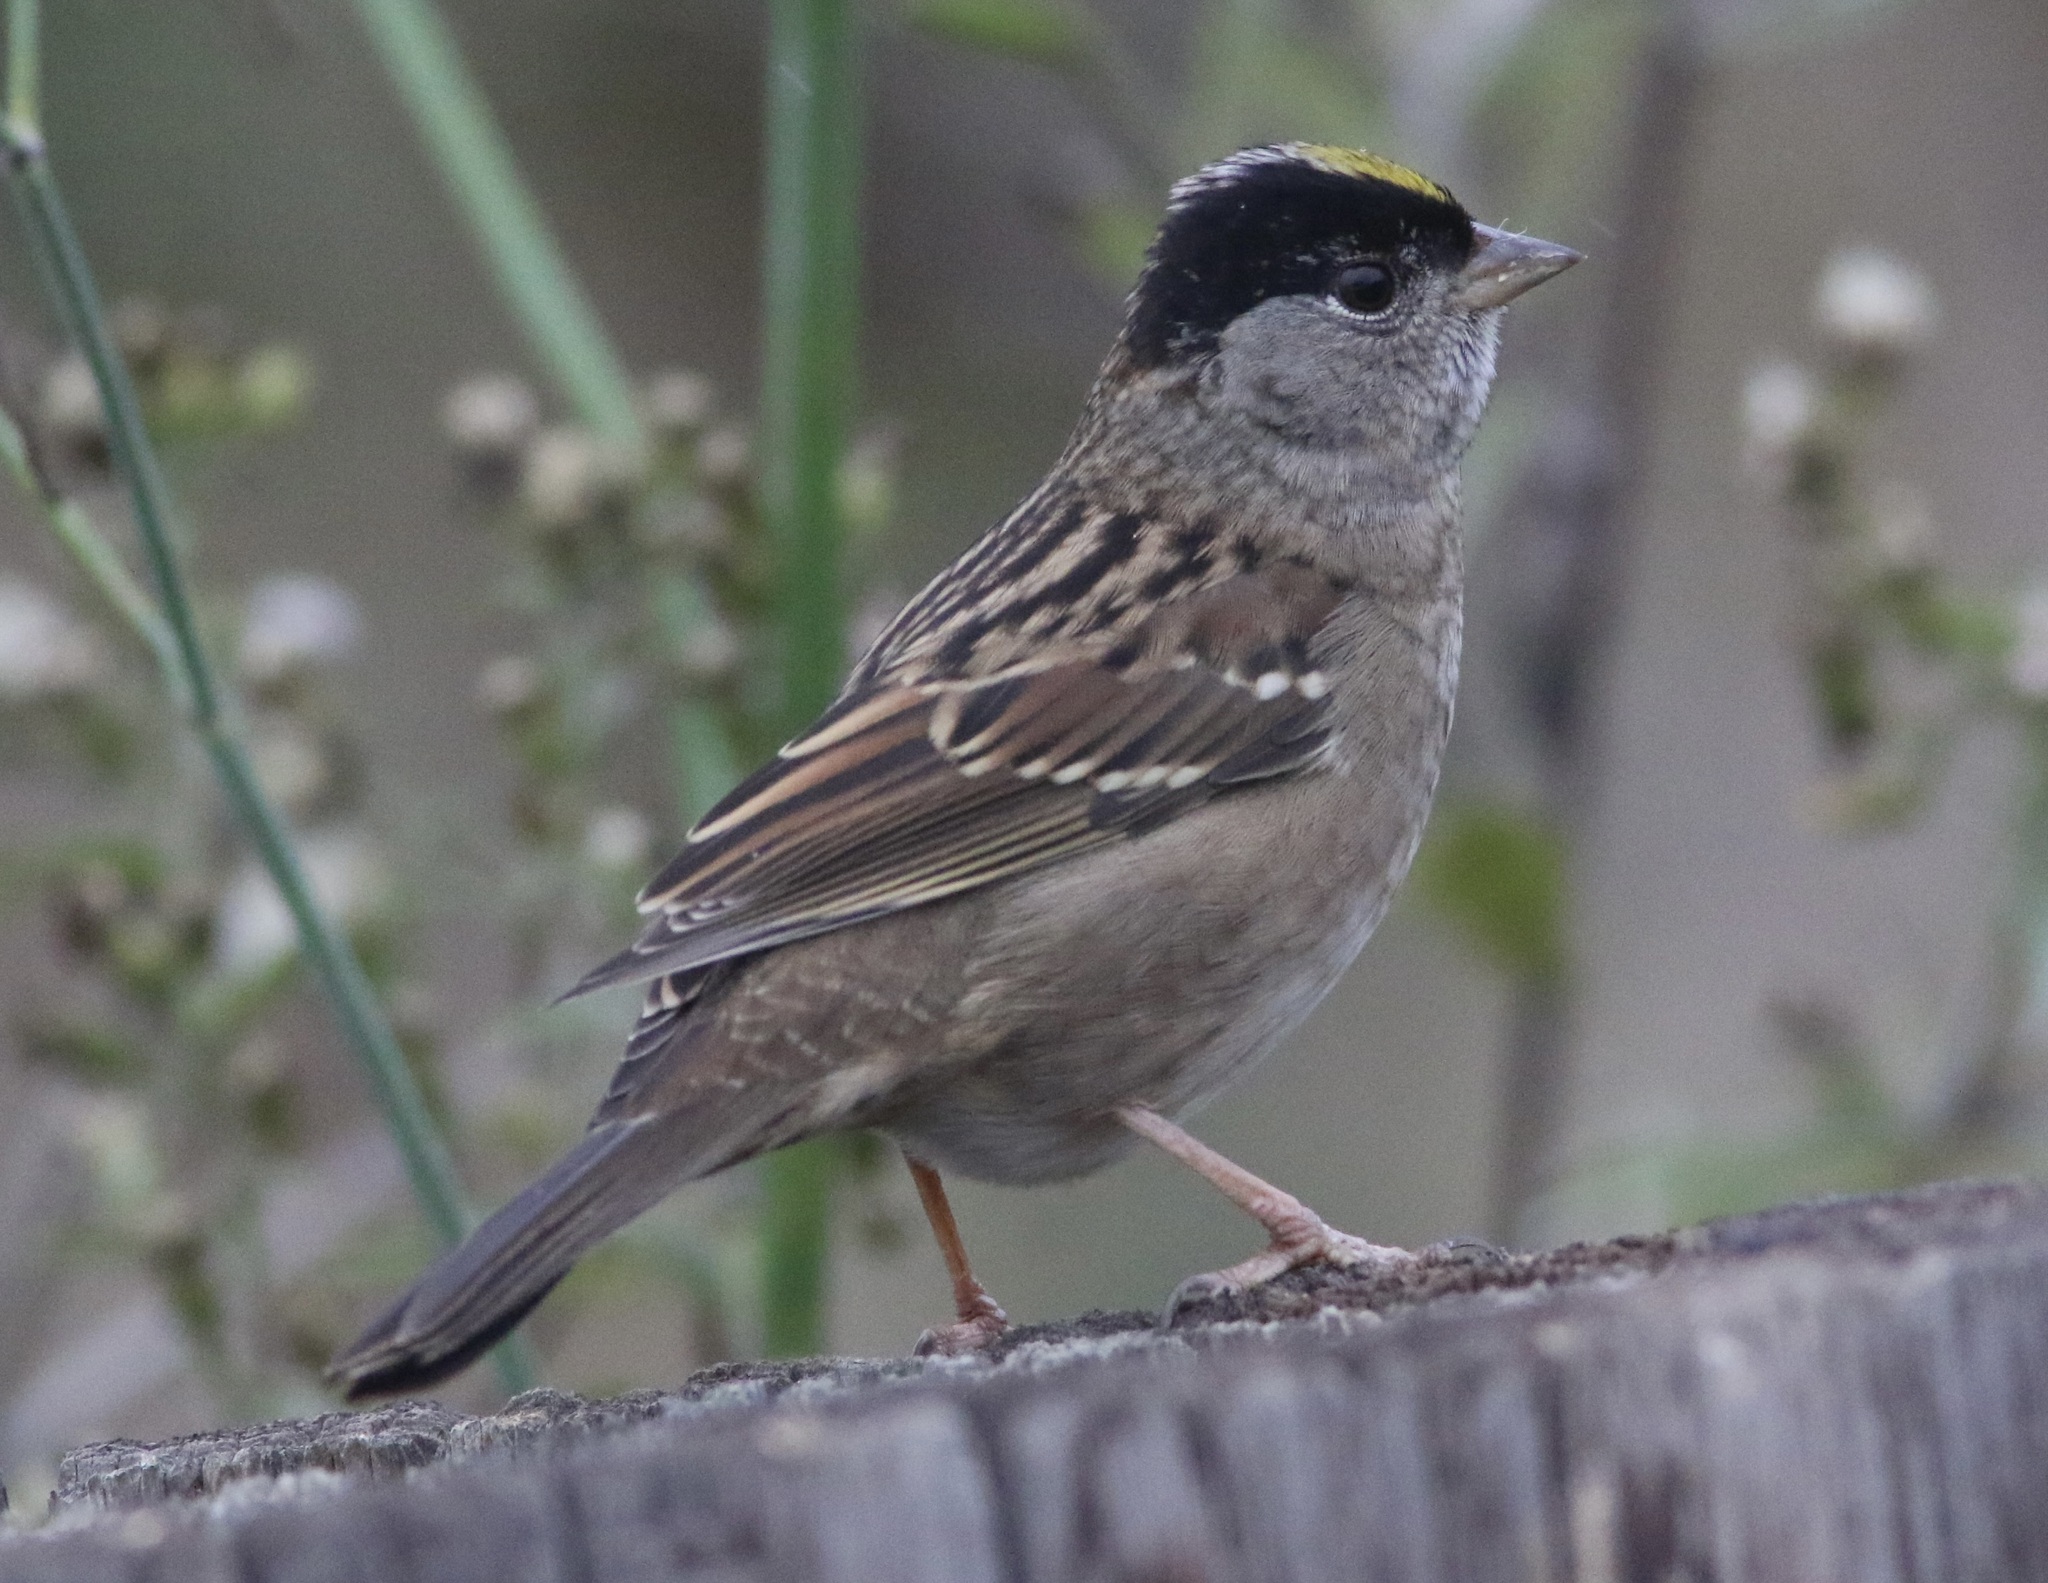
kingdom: Animalia
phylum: Chordata
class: Aves
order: Passeriformes
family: Passerellidae
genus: Zonotrichia
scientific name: Zonotrichia atricapilla
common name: Golden-crowned sparrow
